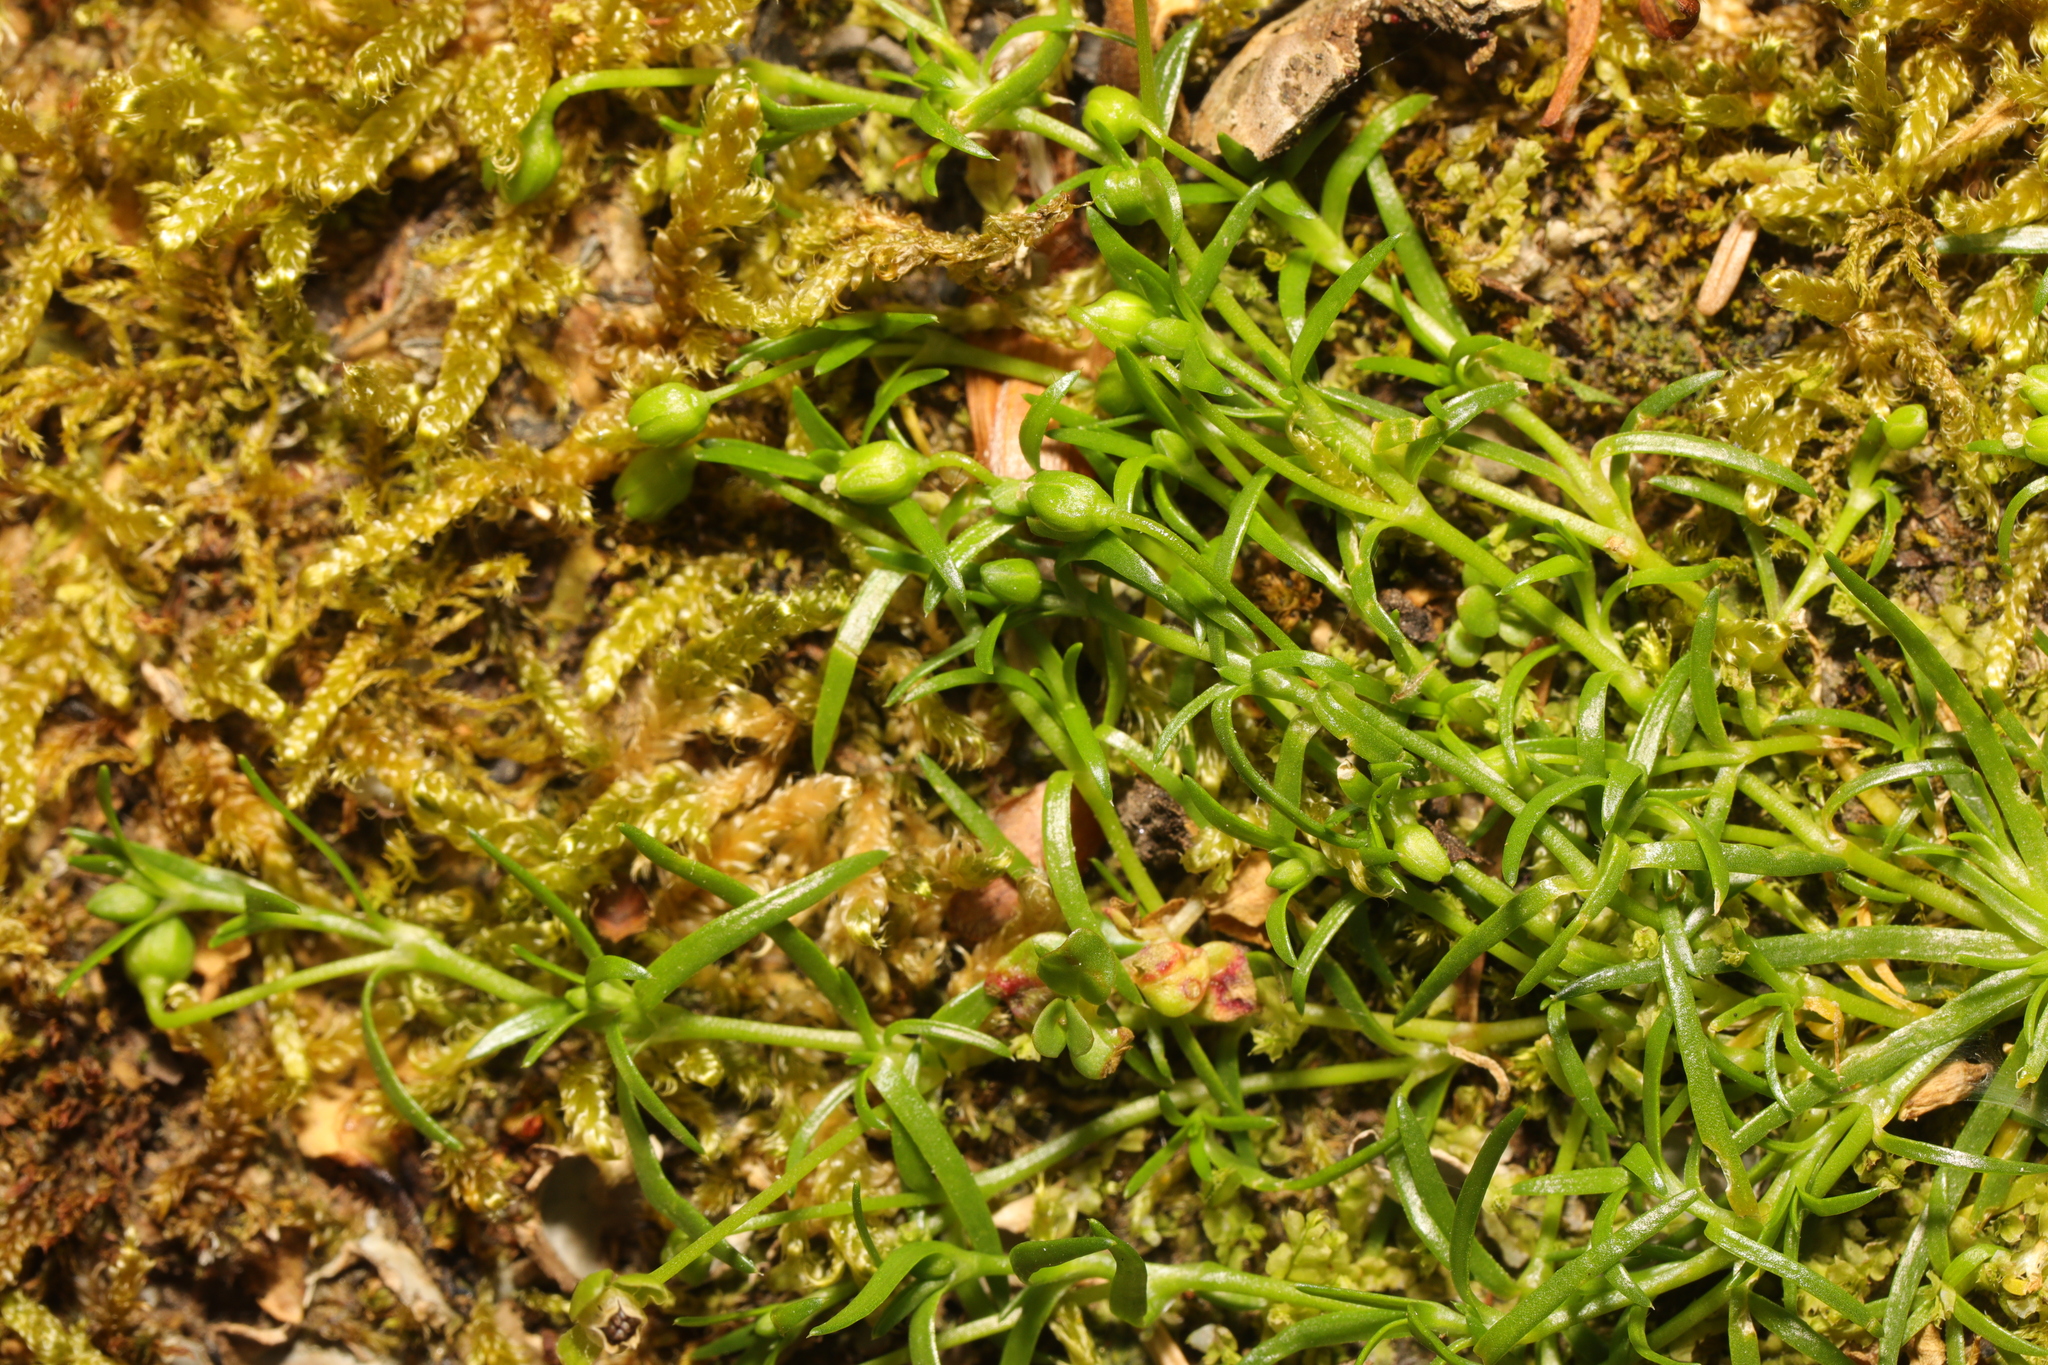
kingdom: Plantae
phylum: Tracheophyta
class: Magnoliopsida
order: Caryophyllales
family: Caryophyllaceae
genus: Sagina
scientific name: Sagina procumbens
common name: Procumbent pearlwort
